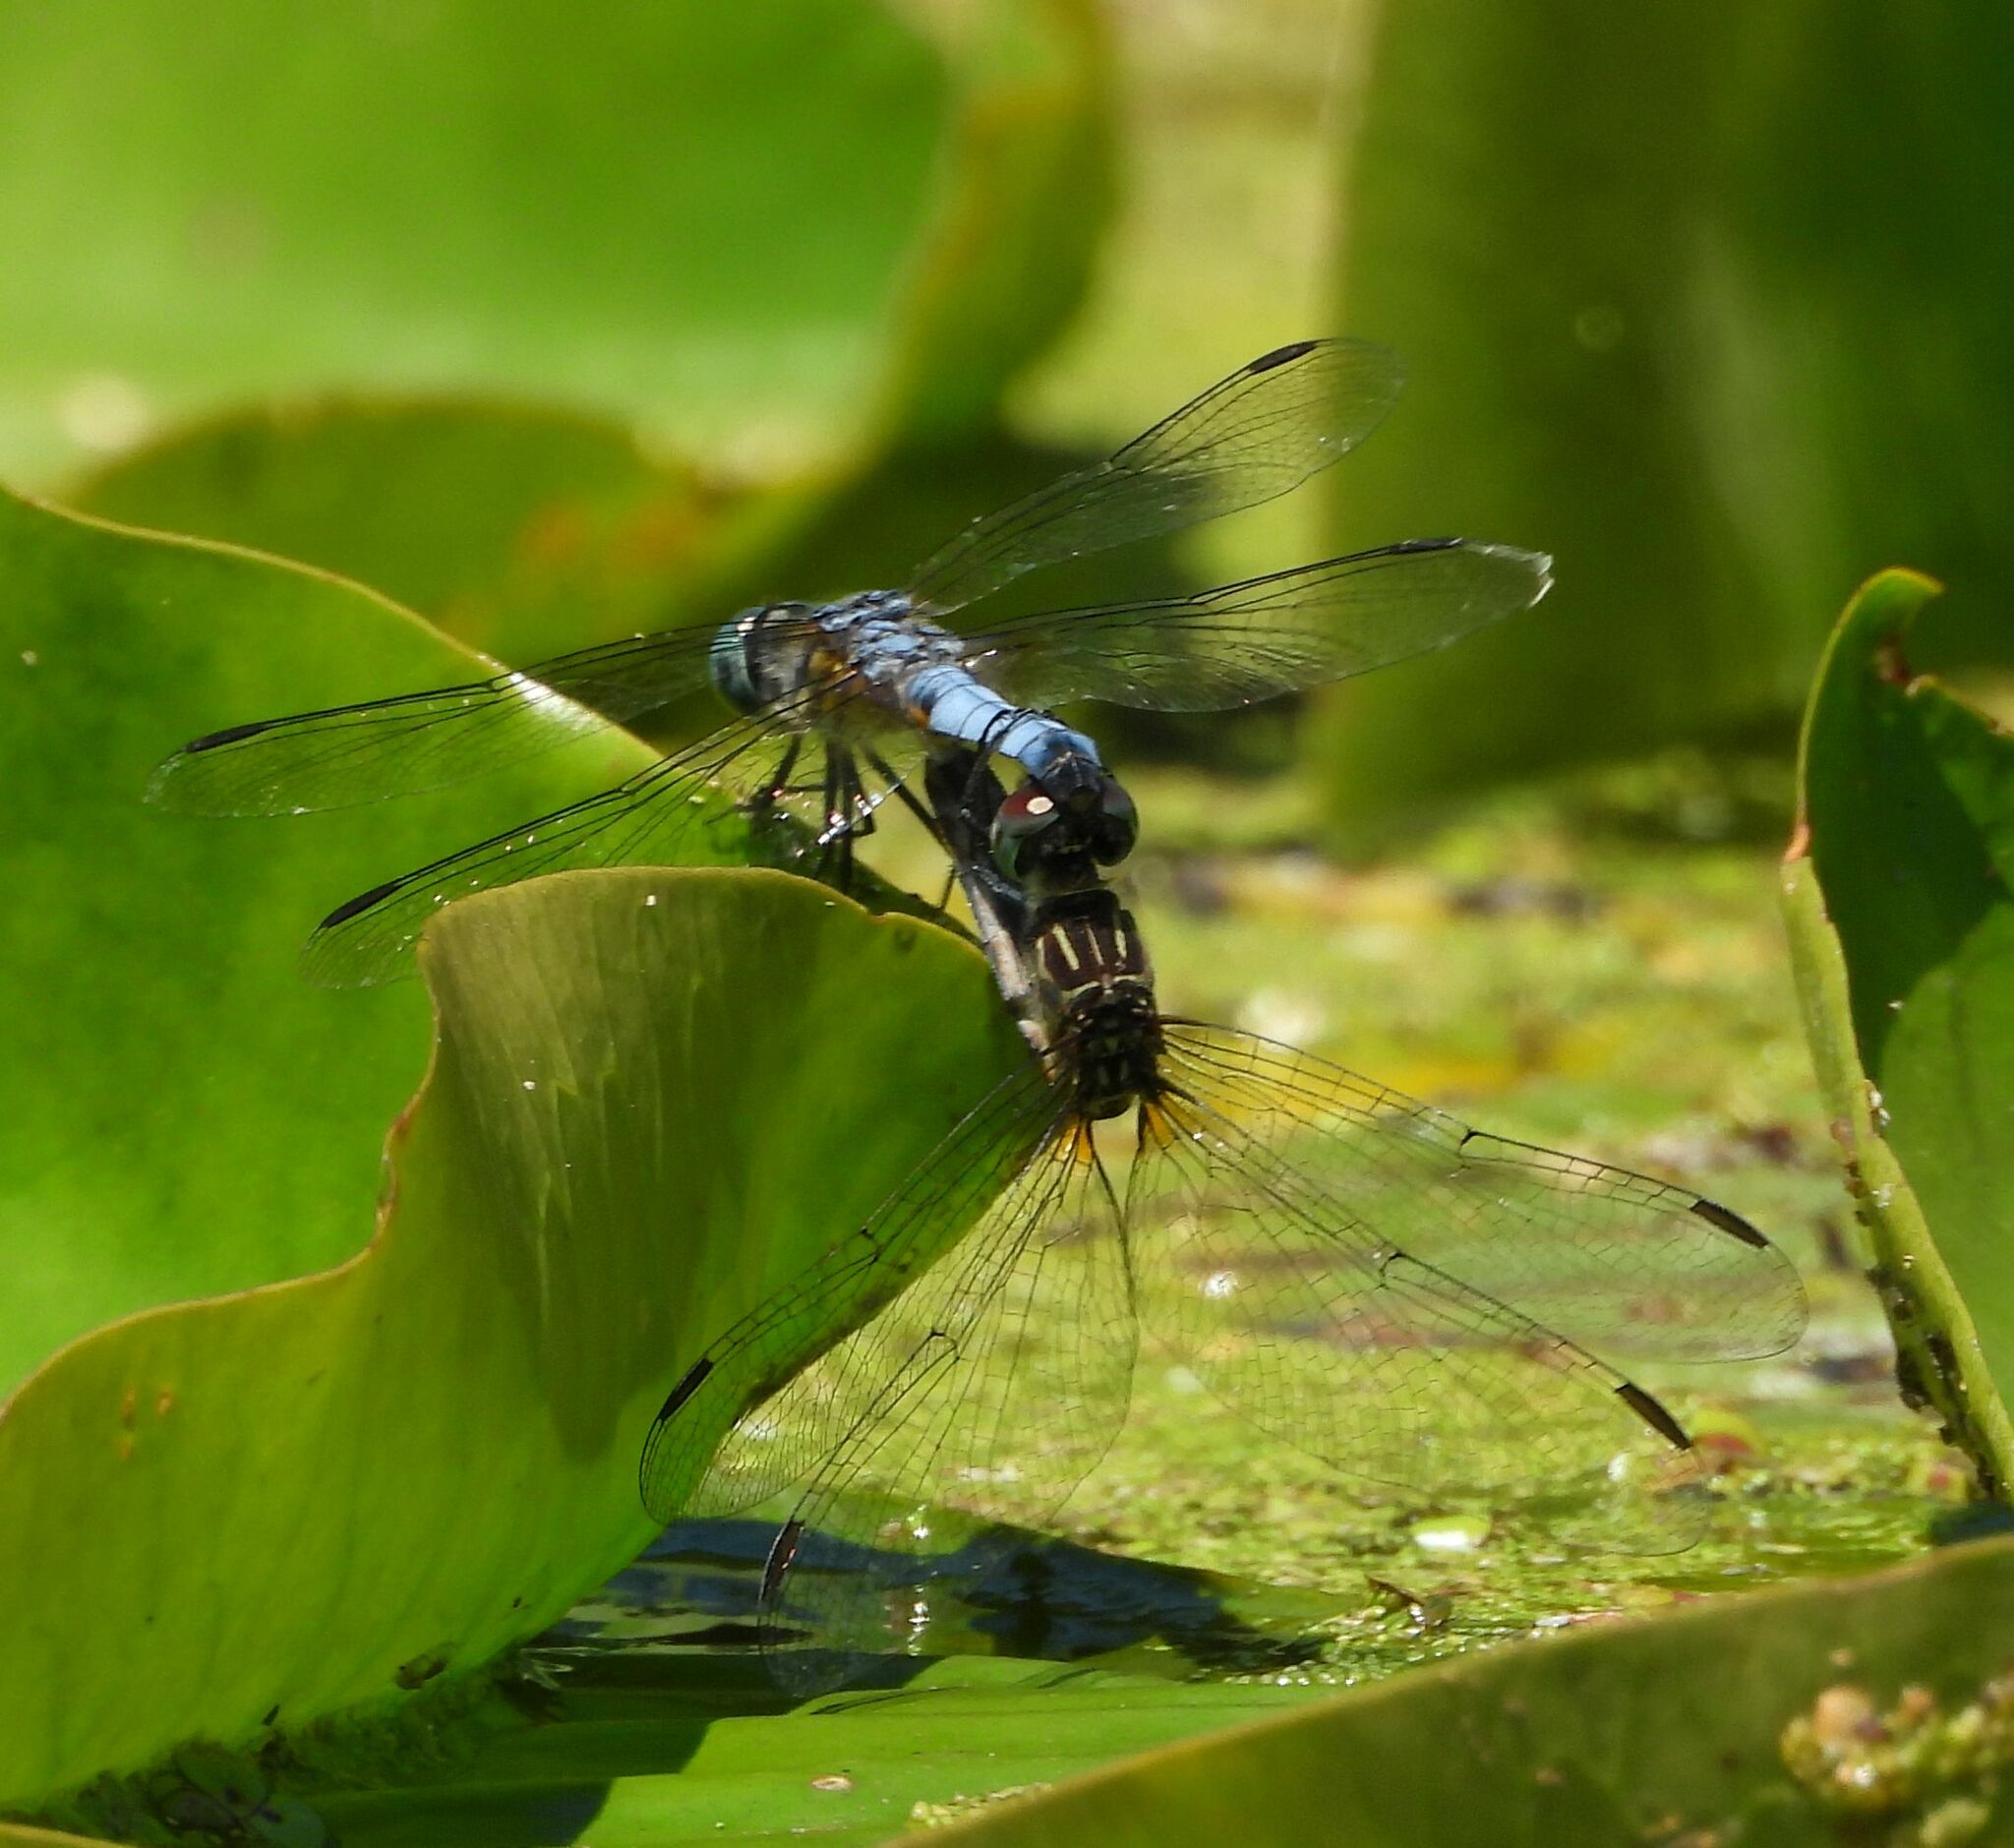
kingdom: Animalia
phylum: Arthropoda
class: Insecta
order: Odonata
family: Libellulidae
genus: Pachydiplax
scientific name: Pachydiplax longipennis
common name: Blue dasher
